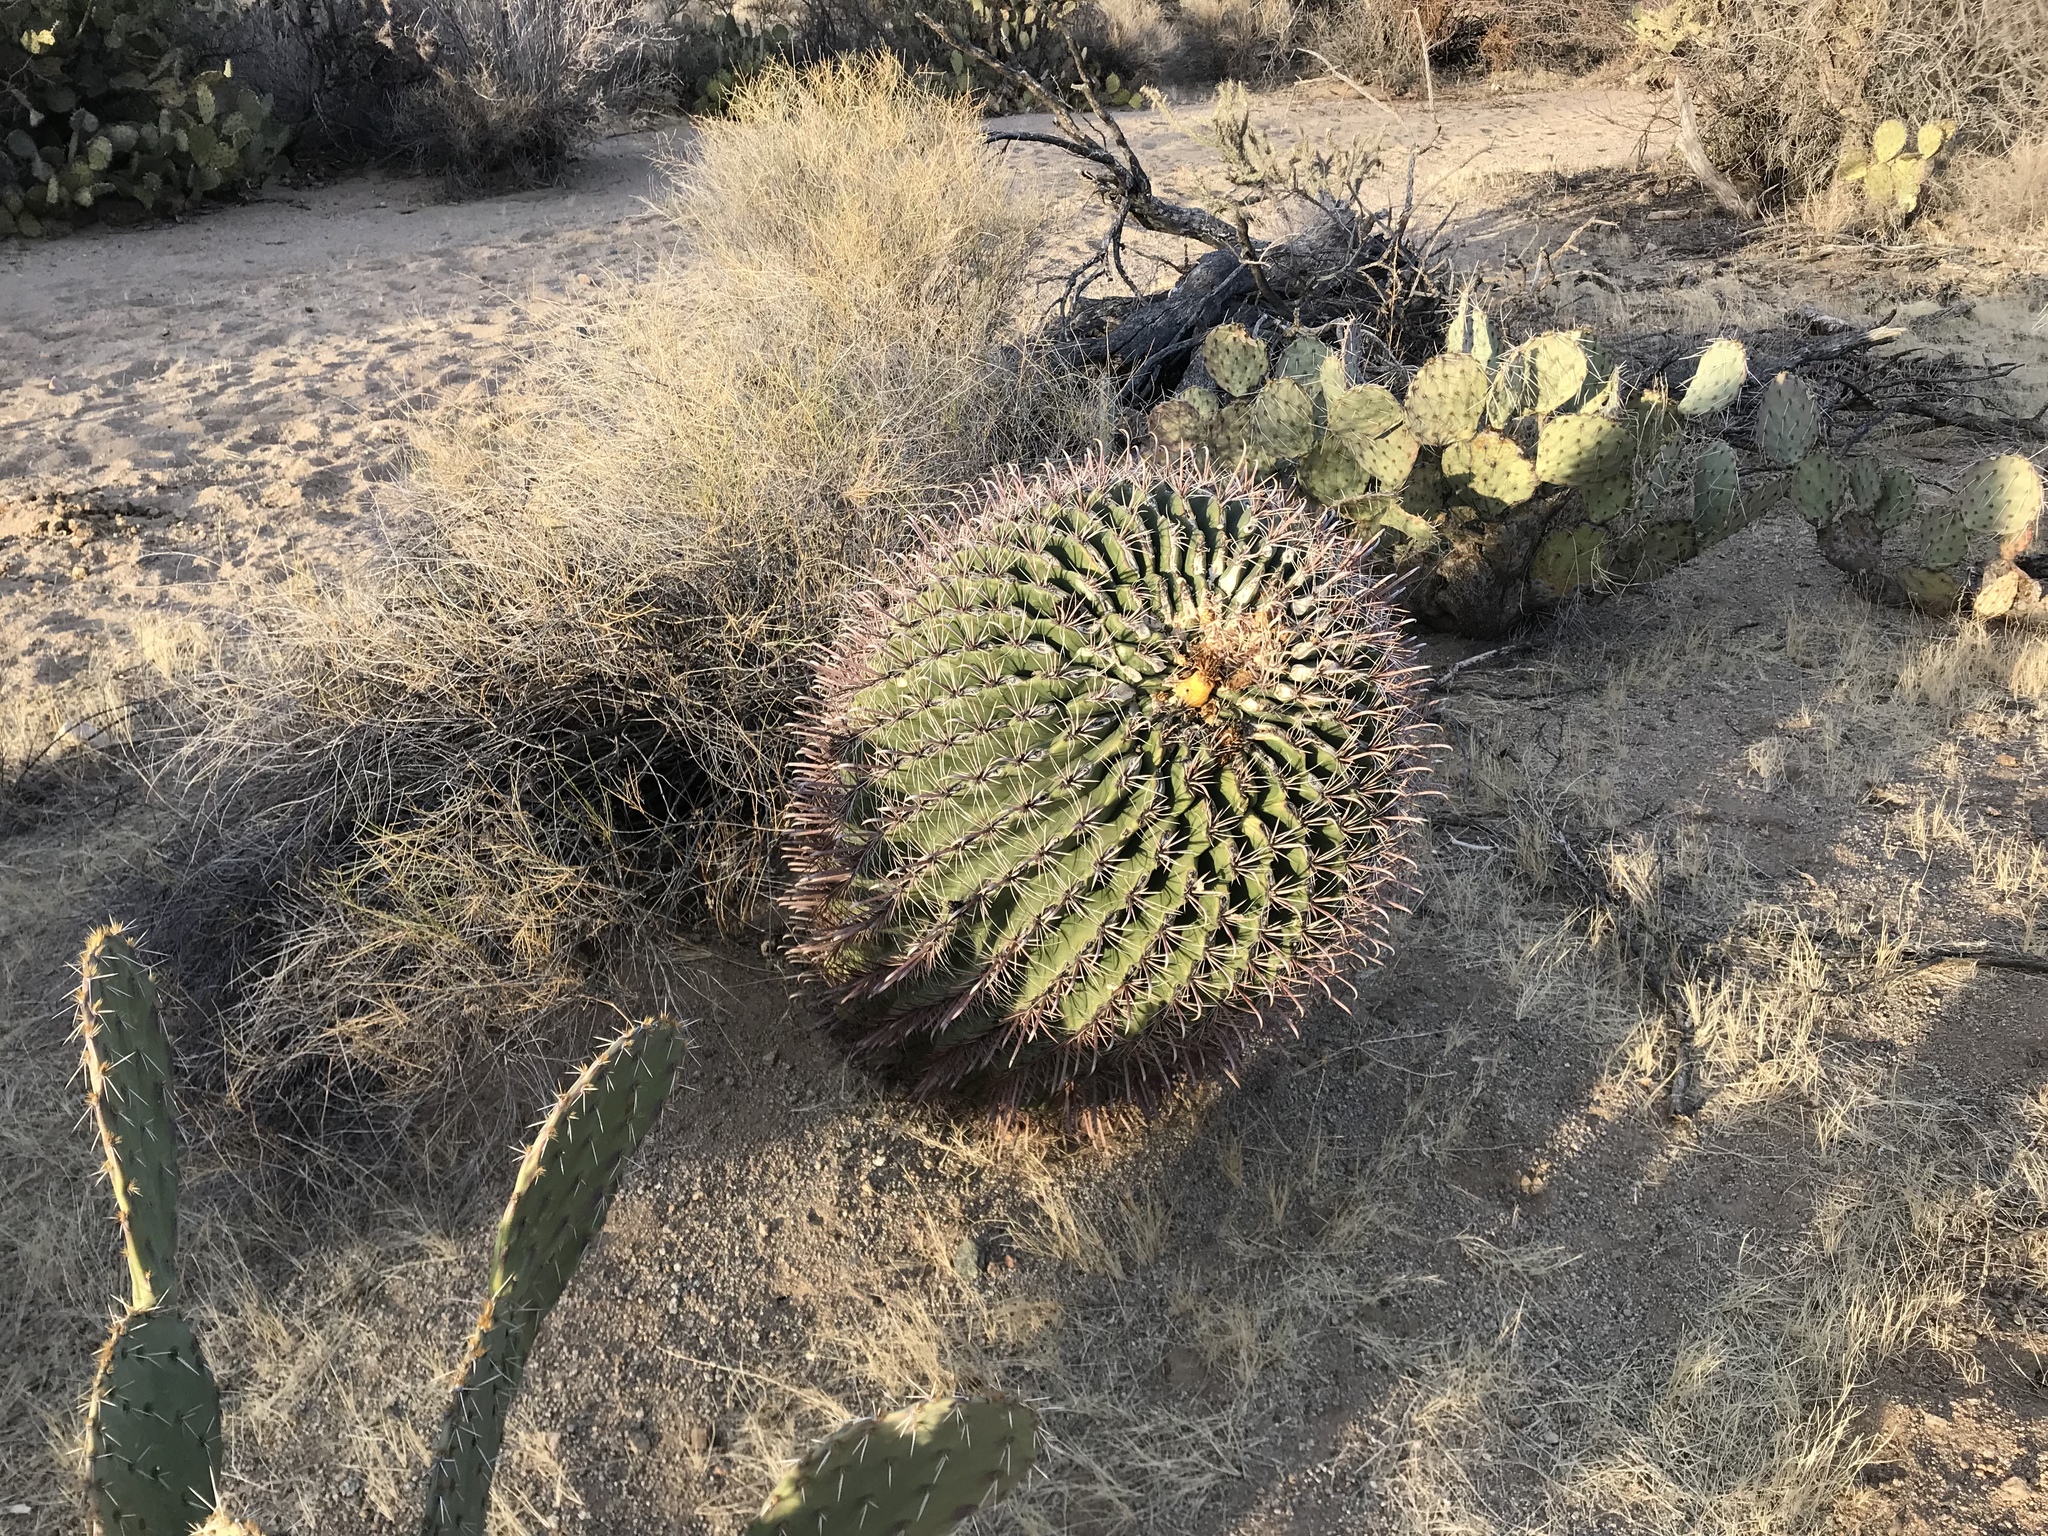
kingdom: Plantae
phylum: Tracheophyta
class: Magnoliopsida
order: Caryophyllales
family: Cactaceae
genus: Ferocactus
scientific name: Ferocactus wislizeni
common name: Candy barrel cactus
